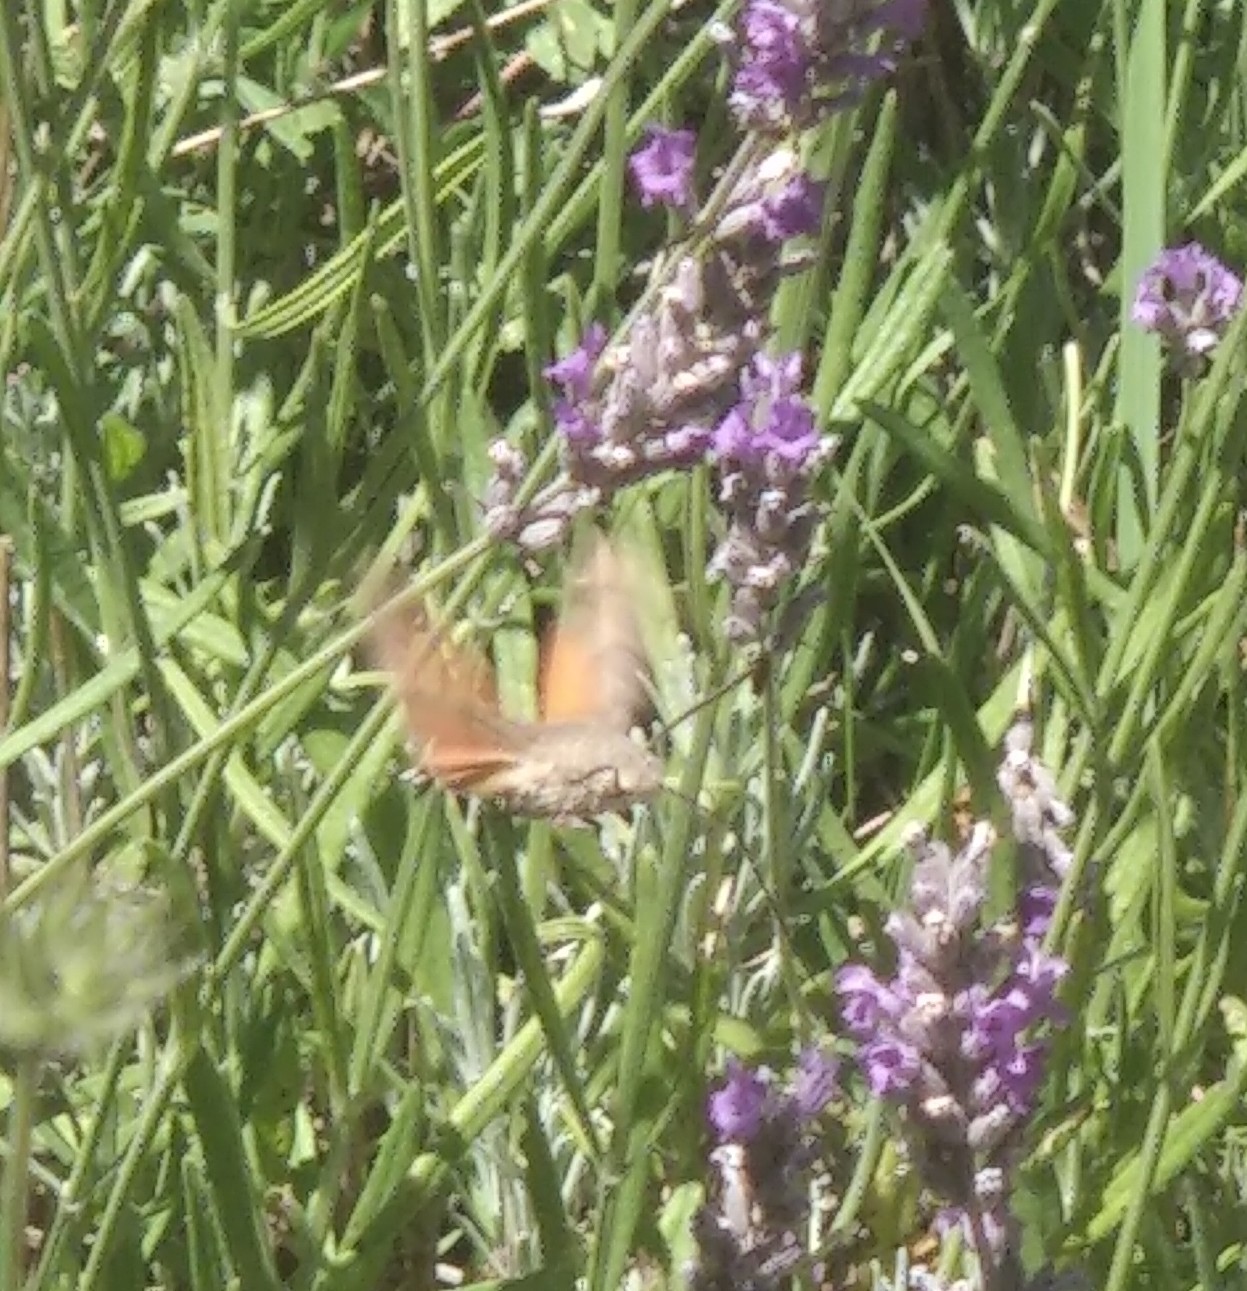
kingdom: Animalia
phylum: Arthropoda
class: Insecta
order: Lepidoptera
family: Sphingidae
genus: Macroglossum
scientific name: Macroglossum stellatarum
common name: Humming-bird hawk-moth
